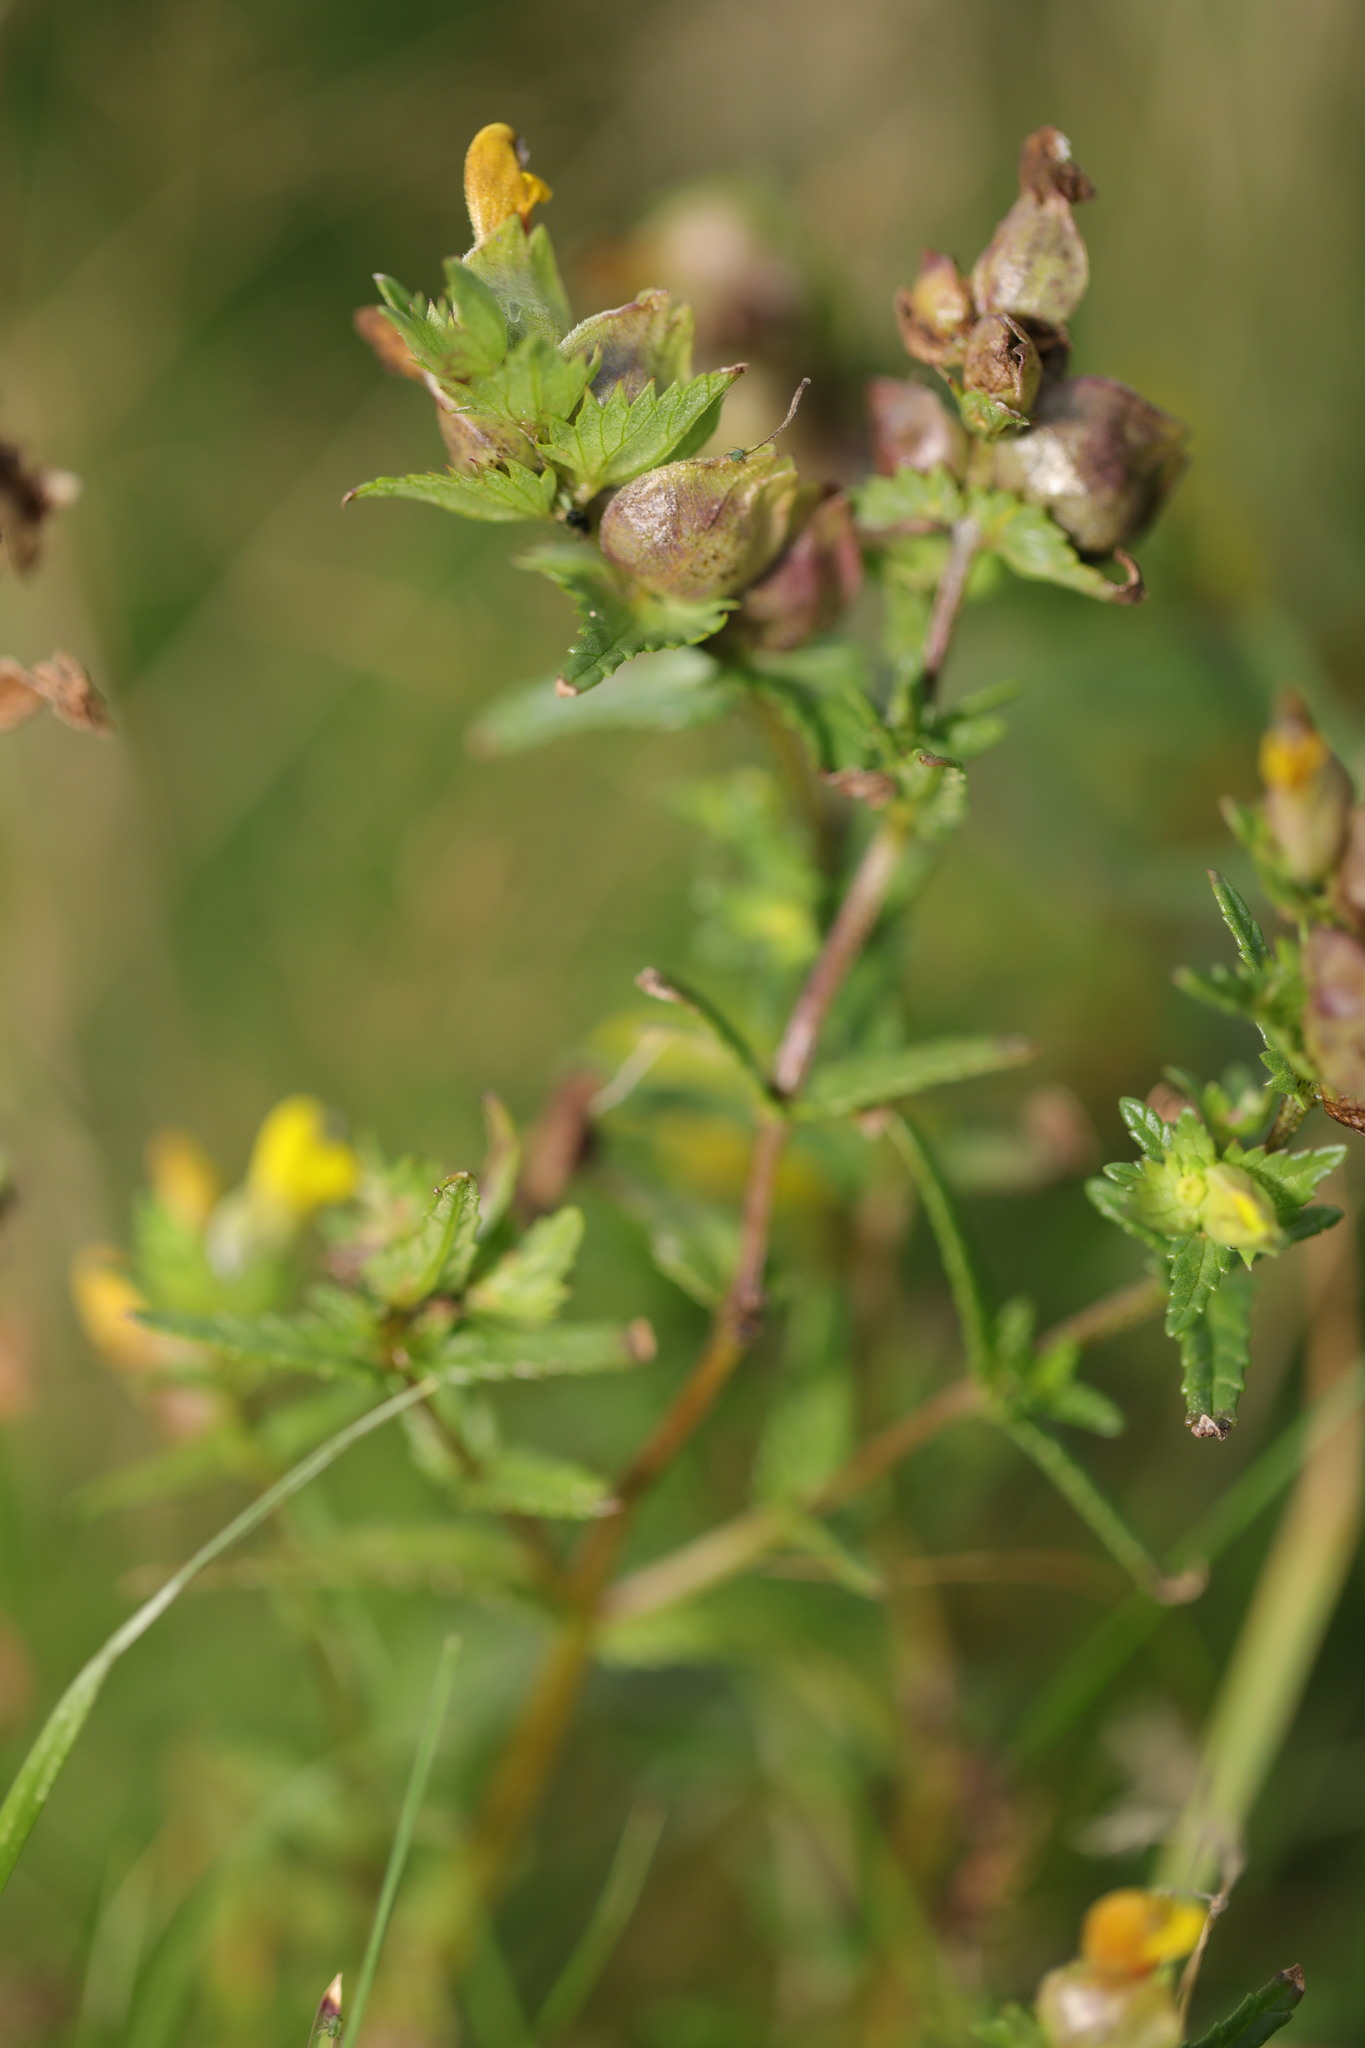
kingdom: Plantae
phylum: Tracheophyta
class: Magnoliopsida
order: Lamiales
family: Orobanchaceae
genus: Rhinanthus
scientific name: Rhinanthus minor
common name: Yellow-rattle
